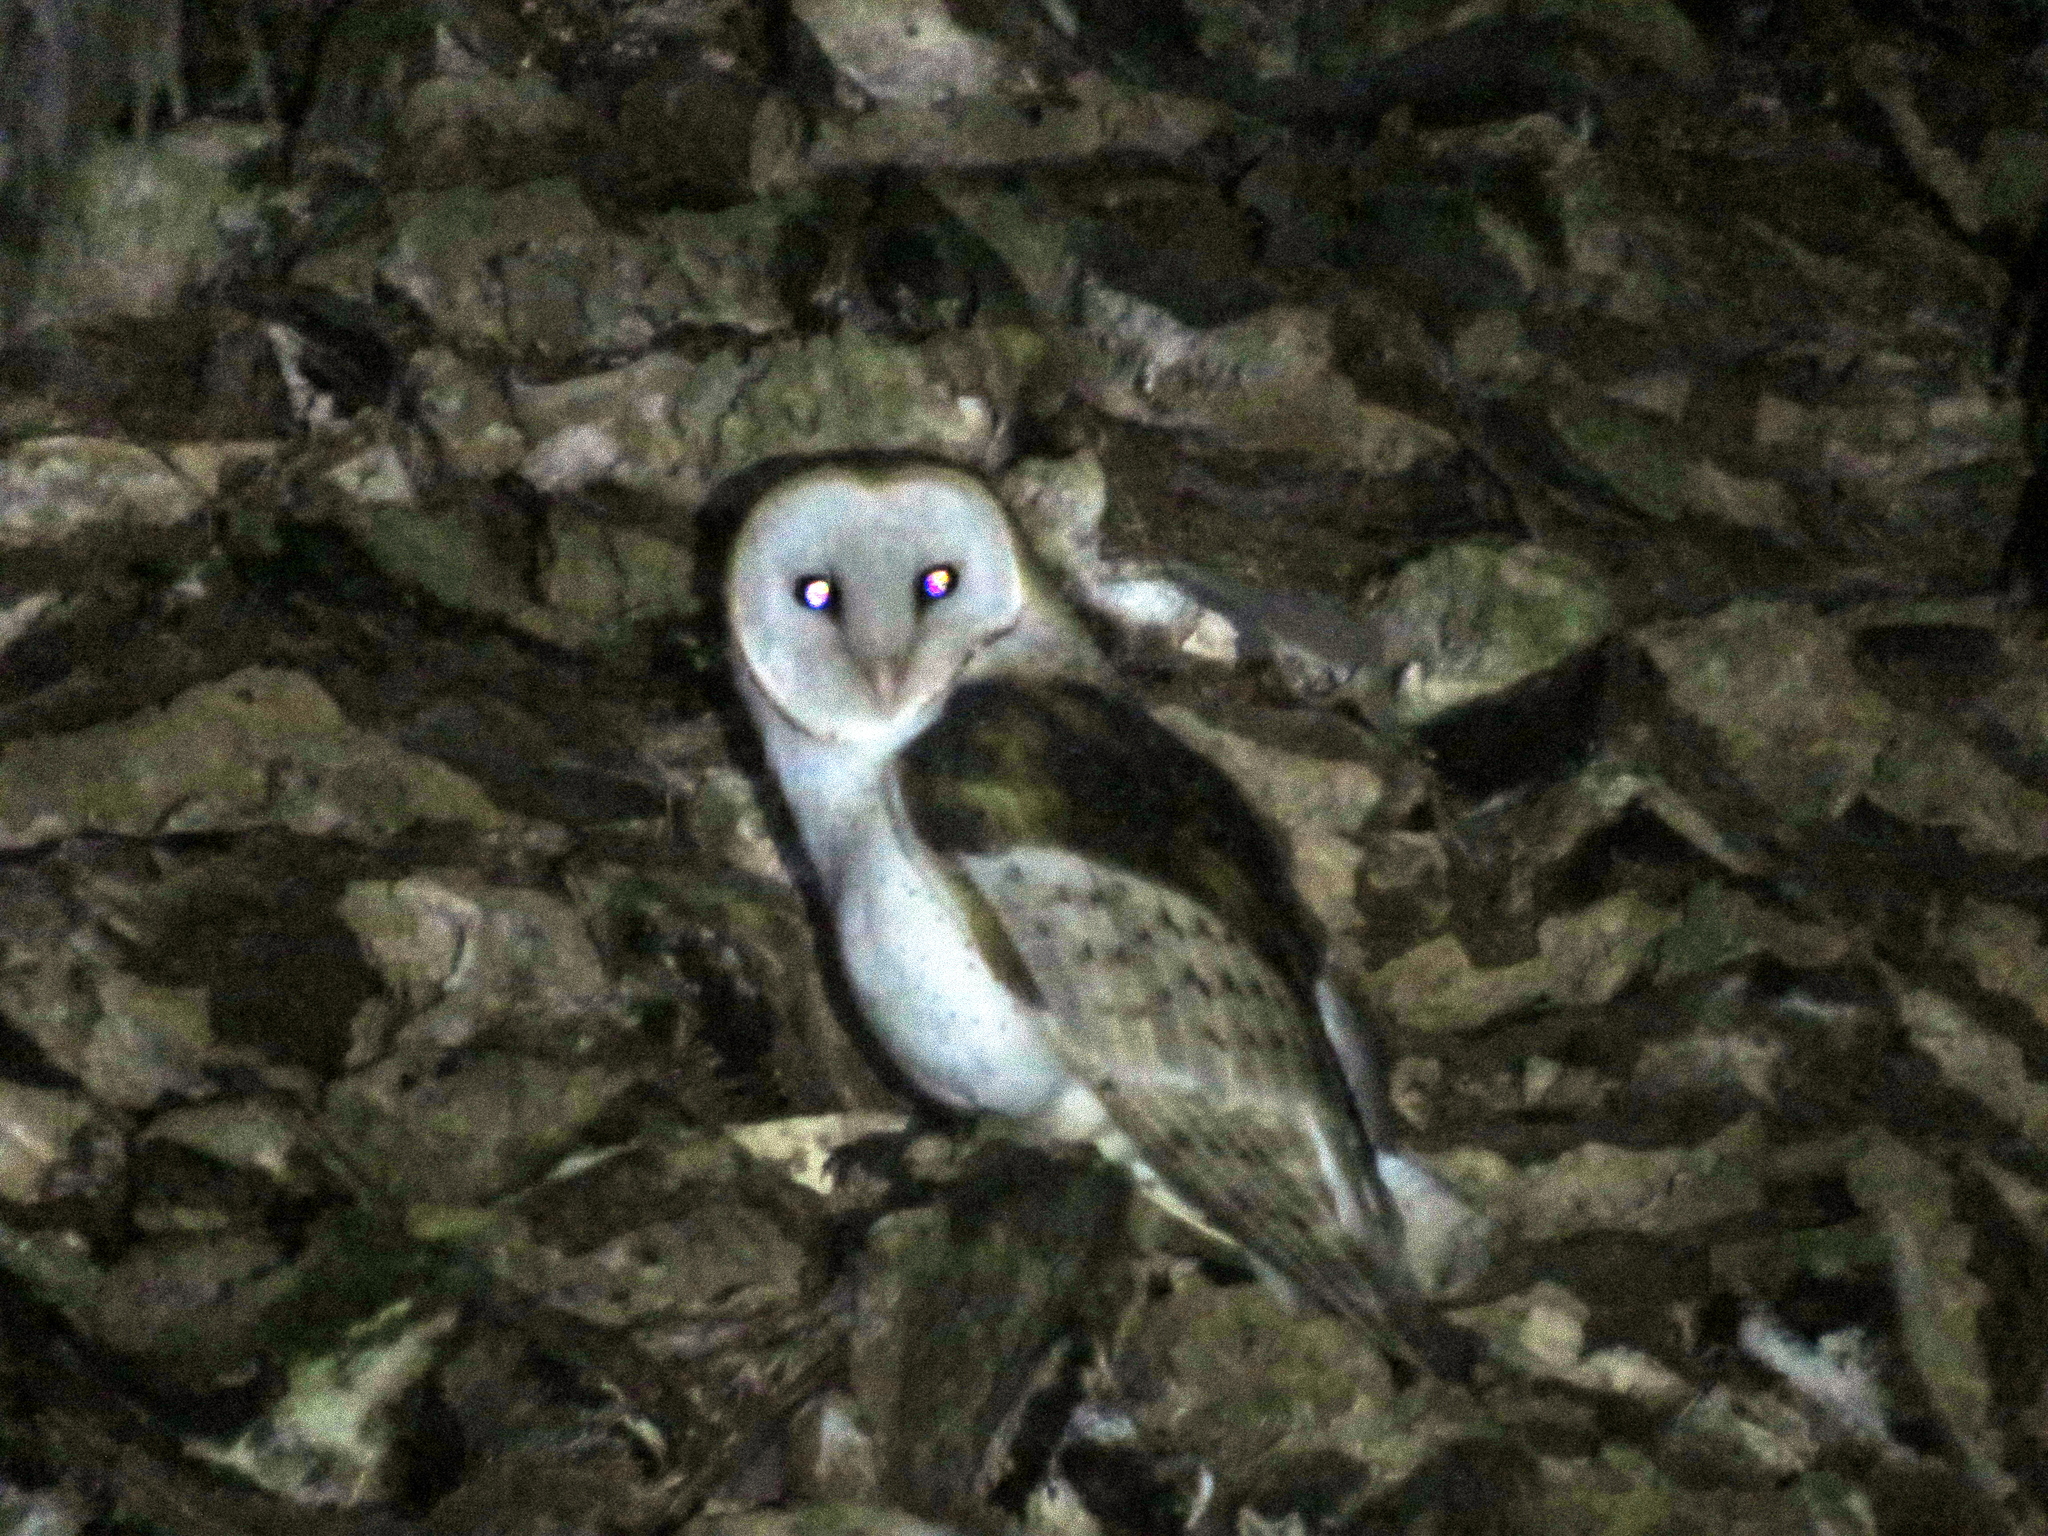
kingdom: Animalia
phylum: Chordata
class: Aves
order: Strigiformes
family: Tytonidae
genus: Tyto
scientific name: Tyto alba
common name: Barn owl
